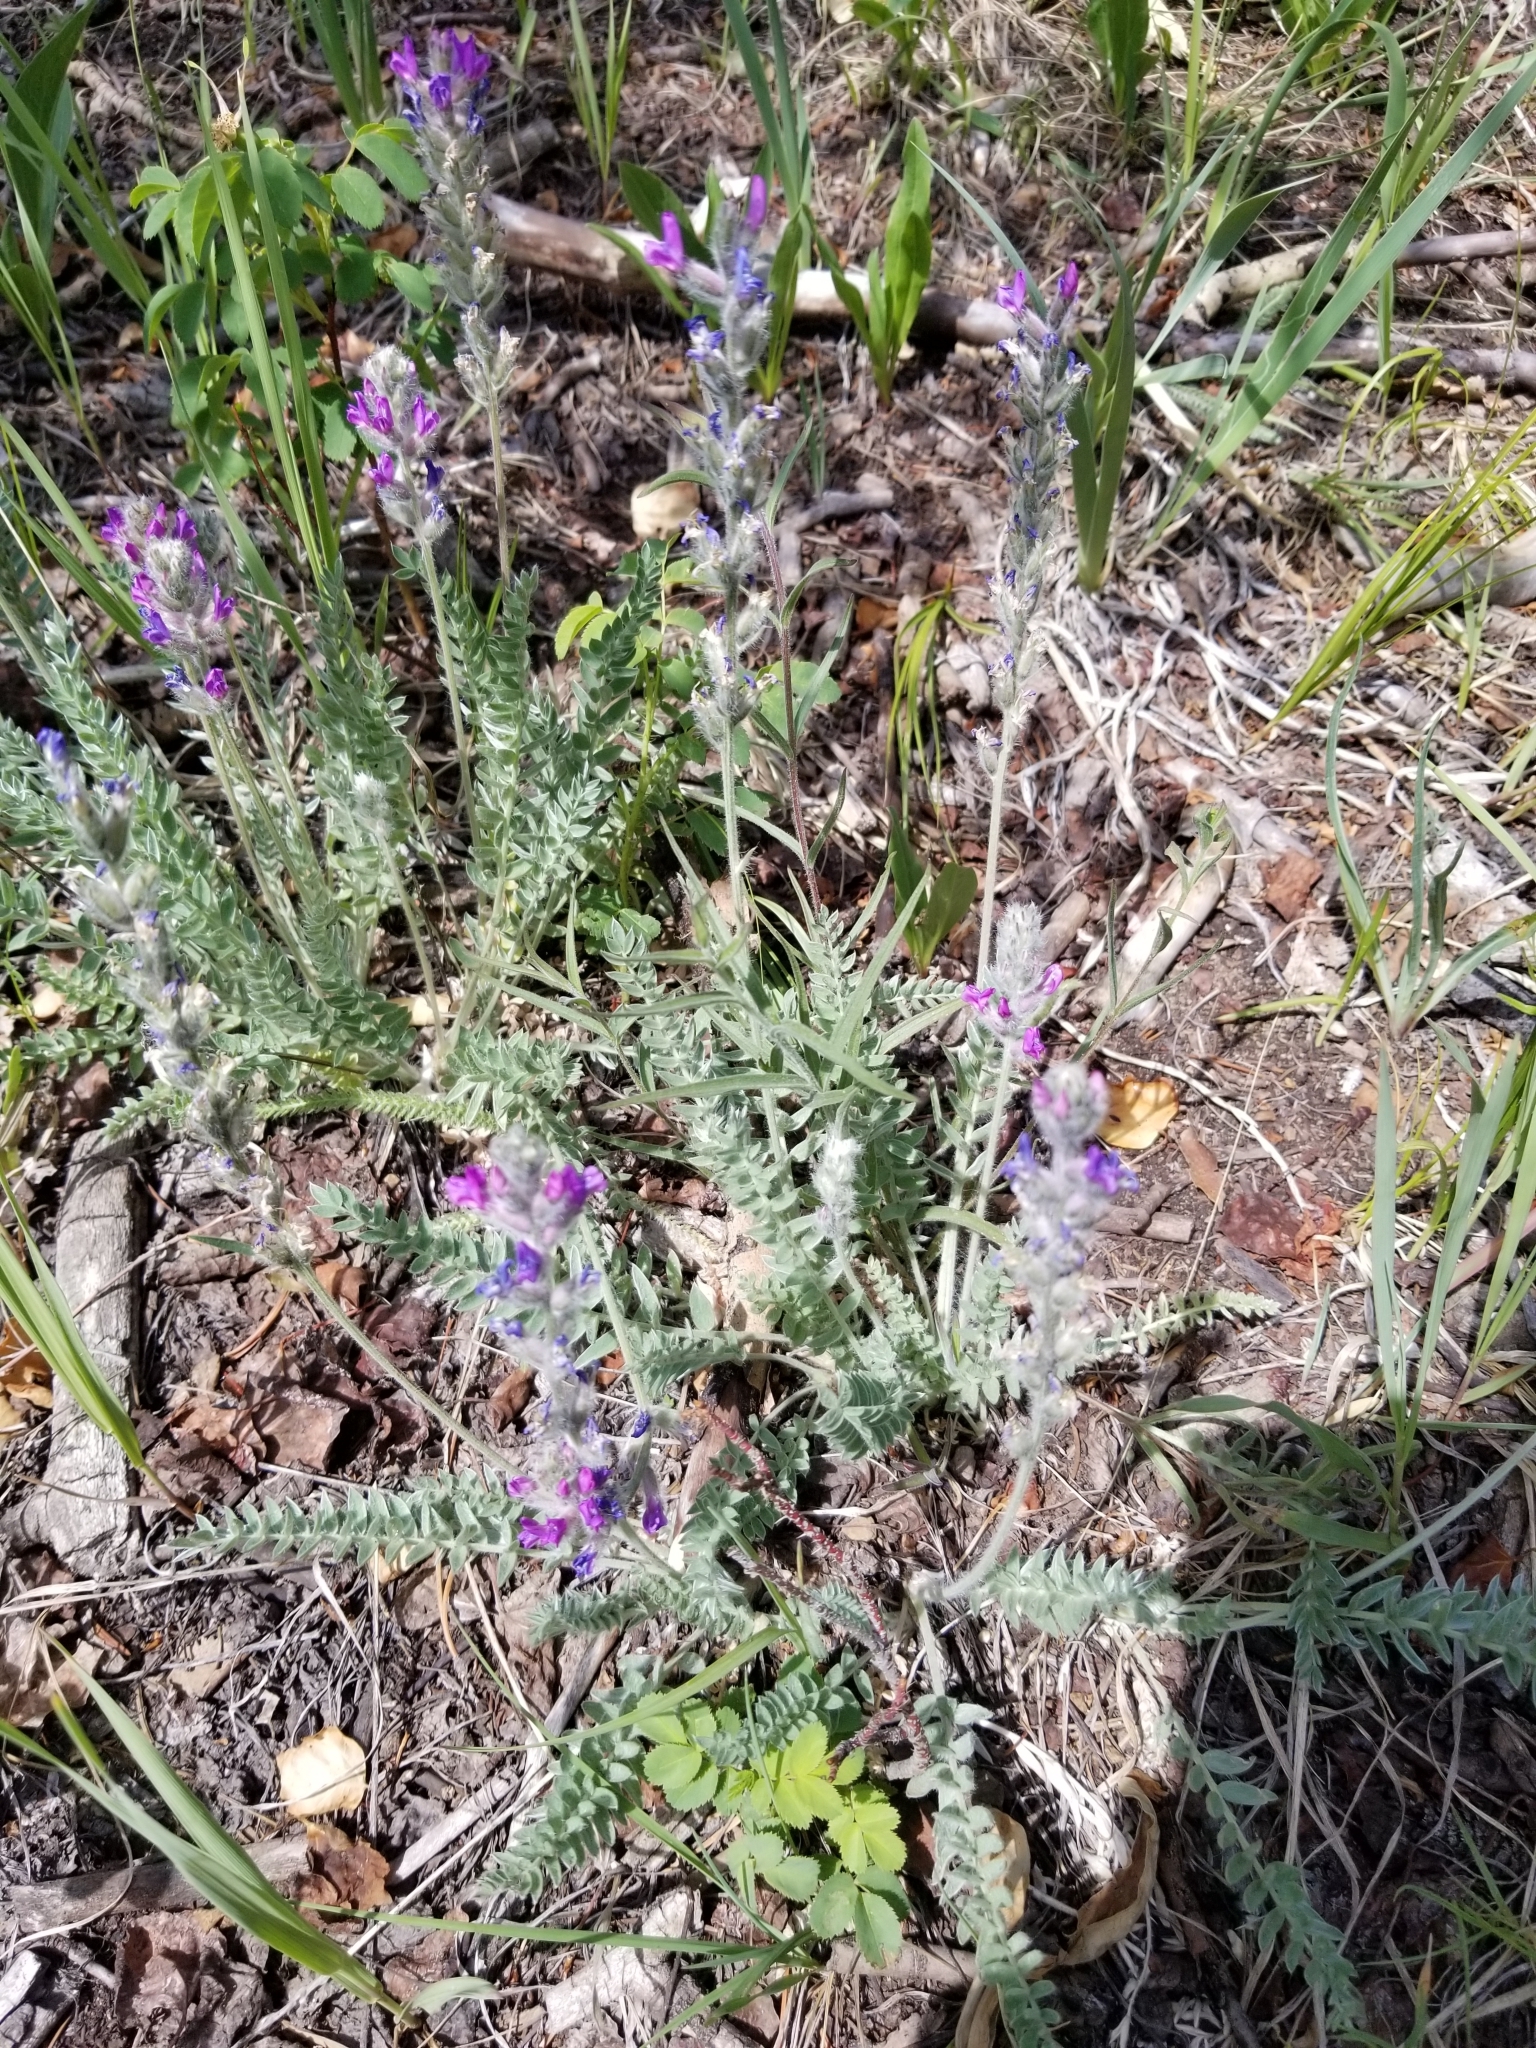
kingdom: Plantae
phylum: Tracheophyta
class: Magnoliopsida
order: Fabales
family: Fabaceae
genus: Oxytropis
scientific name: Oxytropis splendens
